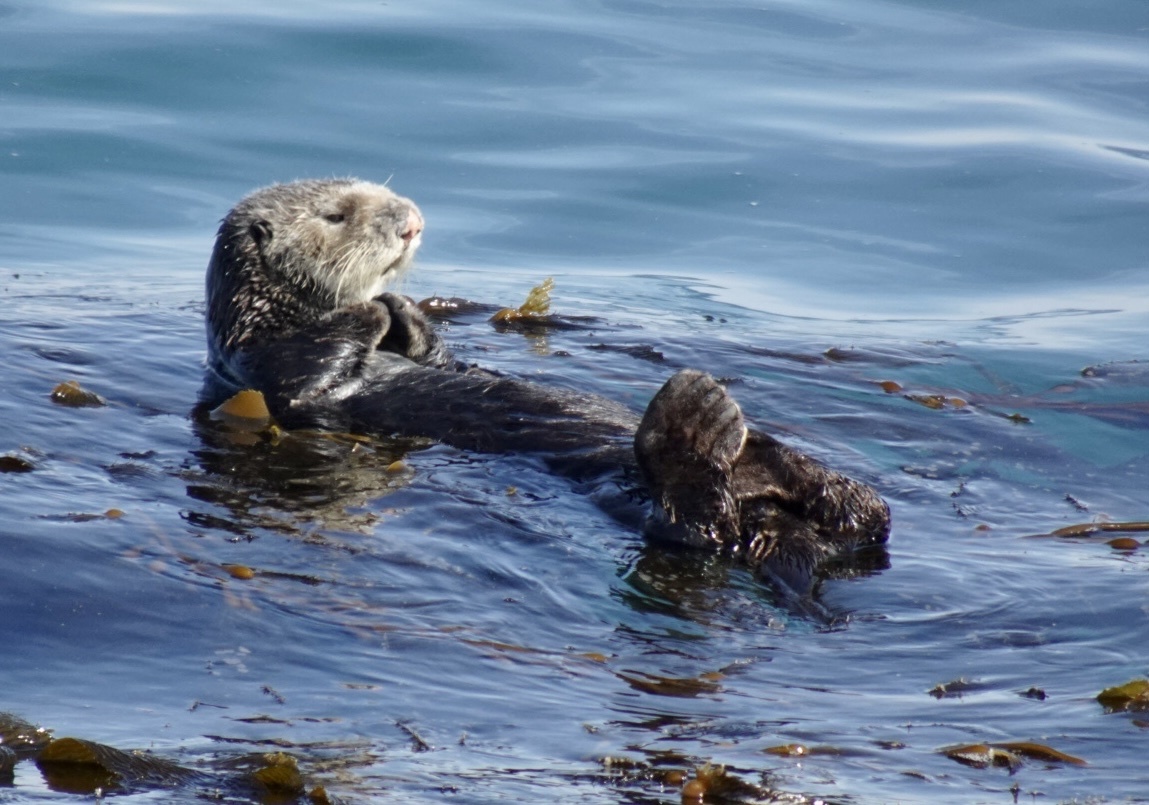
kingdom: Animalia
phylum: Chordata
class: Mammalia
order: Carnivora
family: Mustelidae
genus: Enhydra
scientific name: Enhydra lutris
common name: Sea otter
